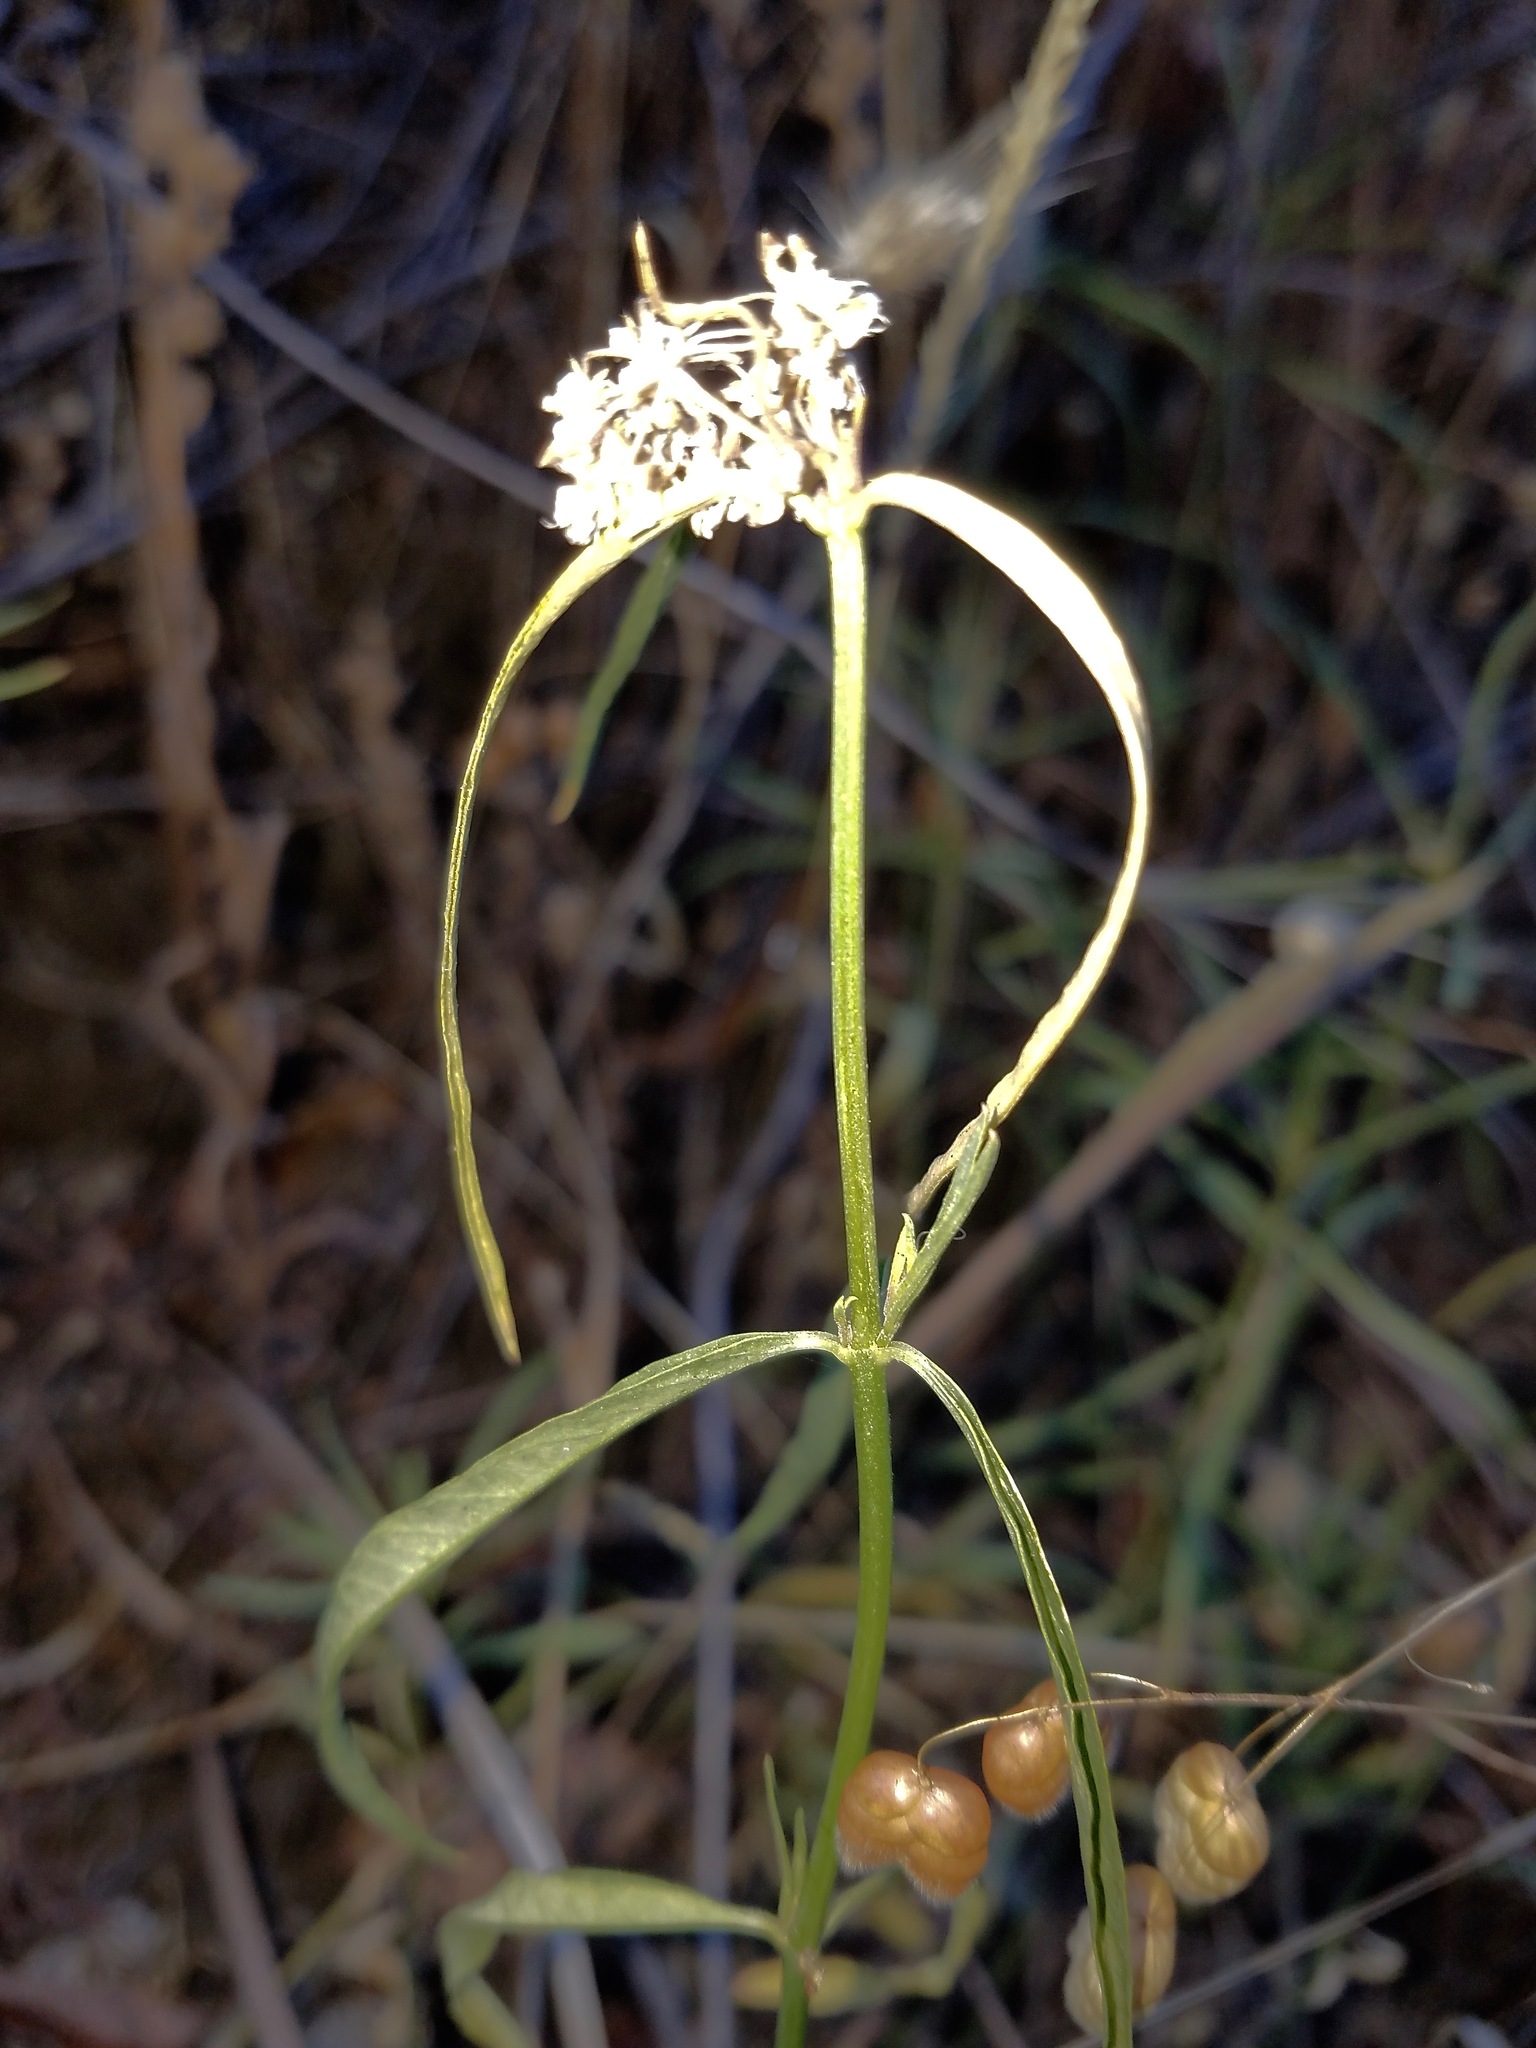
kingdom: Plantae
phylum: Tracheophyta
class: Magnoliopsida
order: Gentianales
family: Apocynaceae
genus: Asclepias
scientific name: Asclepias fascicularis
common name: Mexican milkweed
